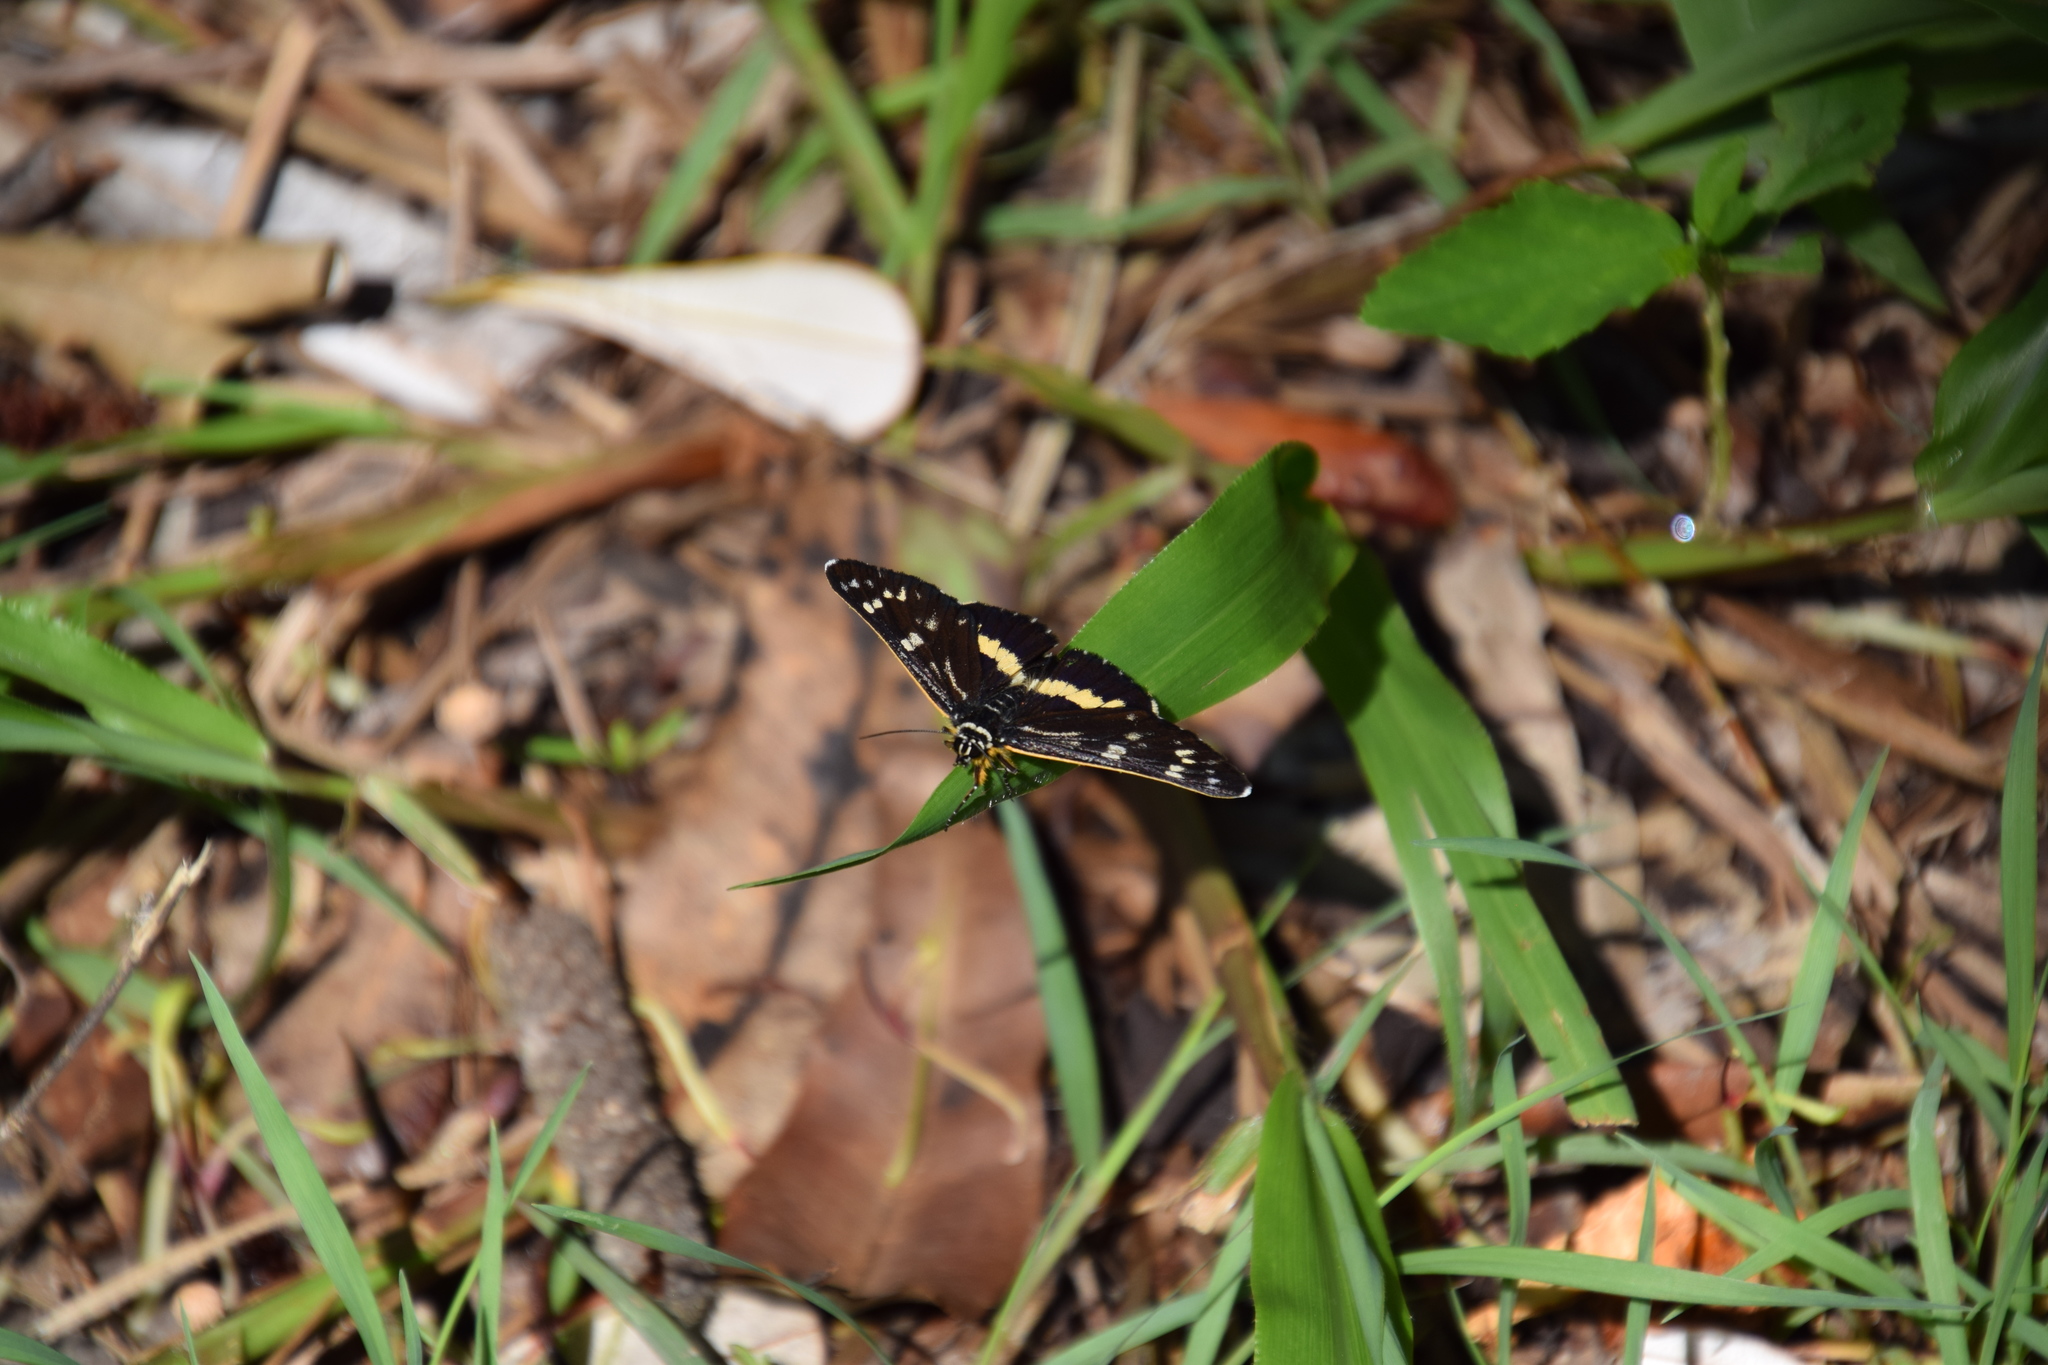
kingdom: Animalia
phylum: Arthropoda
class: Insecta
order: Lepidoptera
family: Noctuidae
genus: Cruria
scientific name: Cruria synopla
